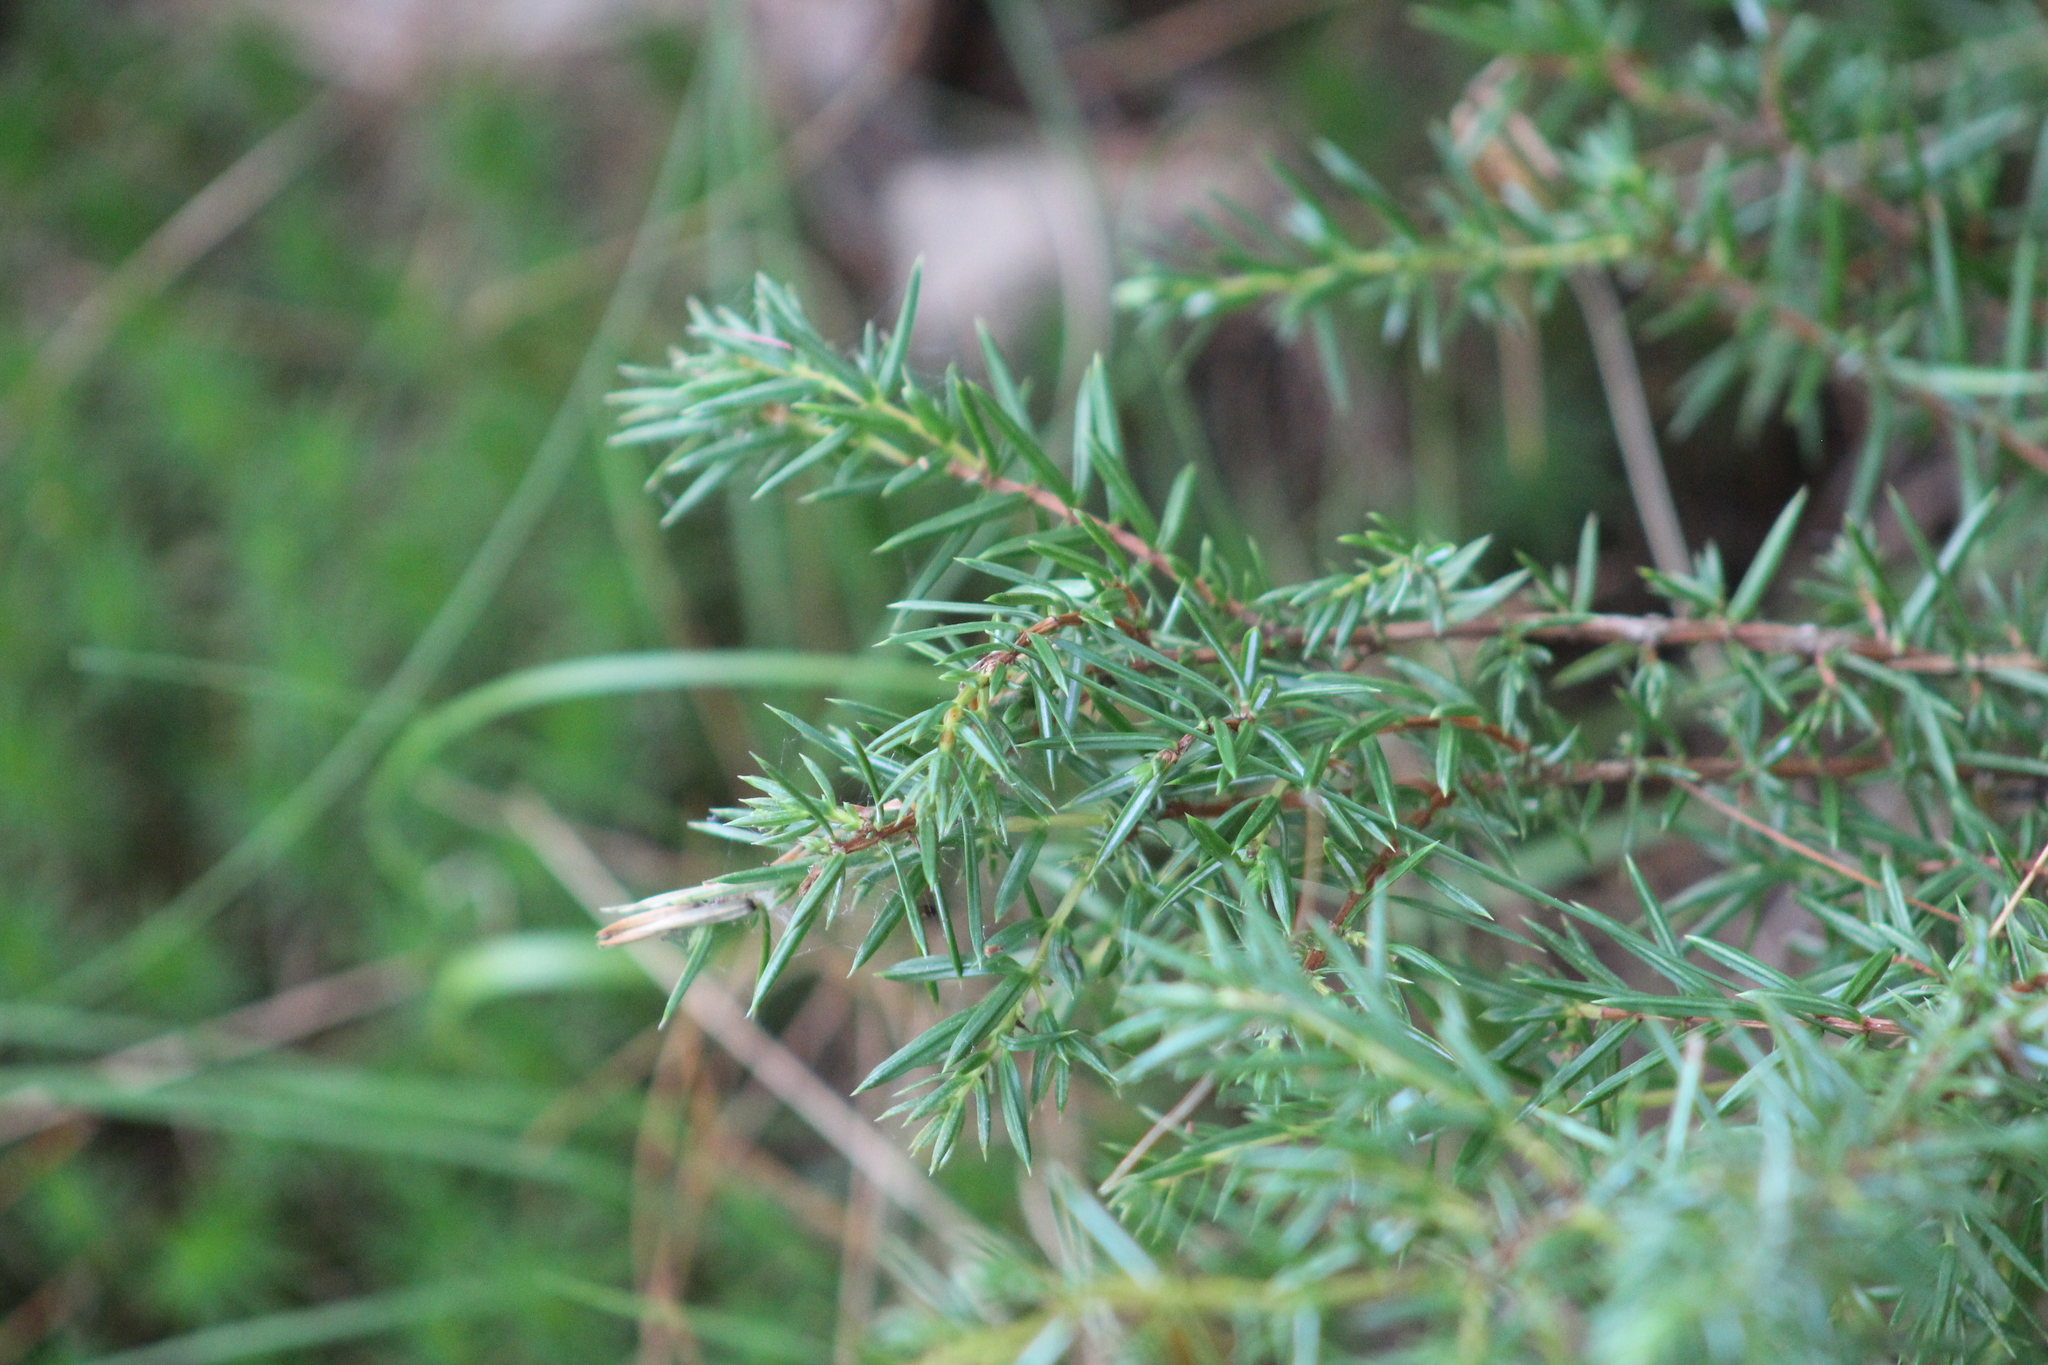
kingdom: Plantae
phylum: Tracheophyta
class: Pinopsida
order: Pinales
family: Cupressaceae
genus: Juniperus
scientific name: Juniperus communis
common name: Common juniper
